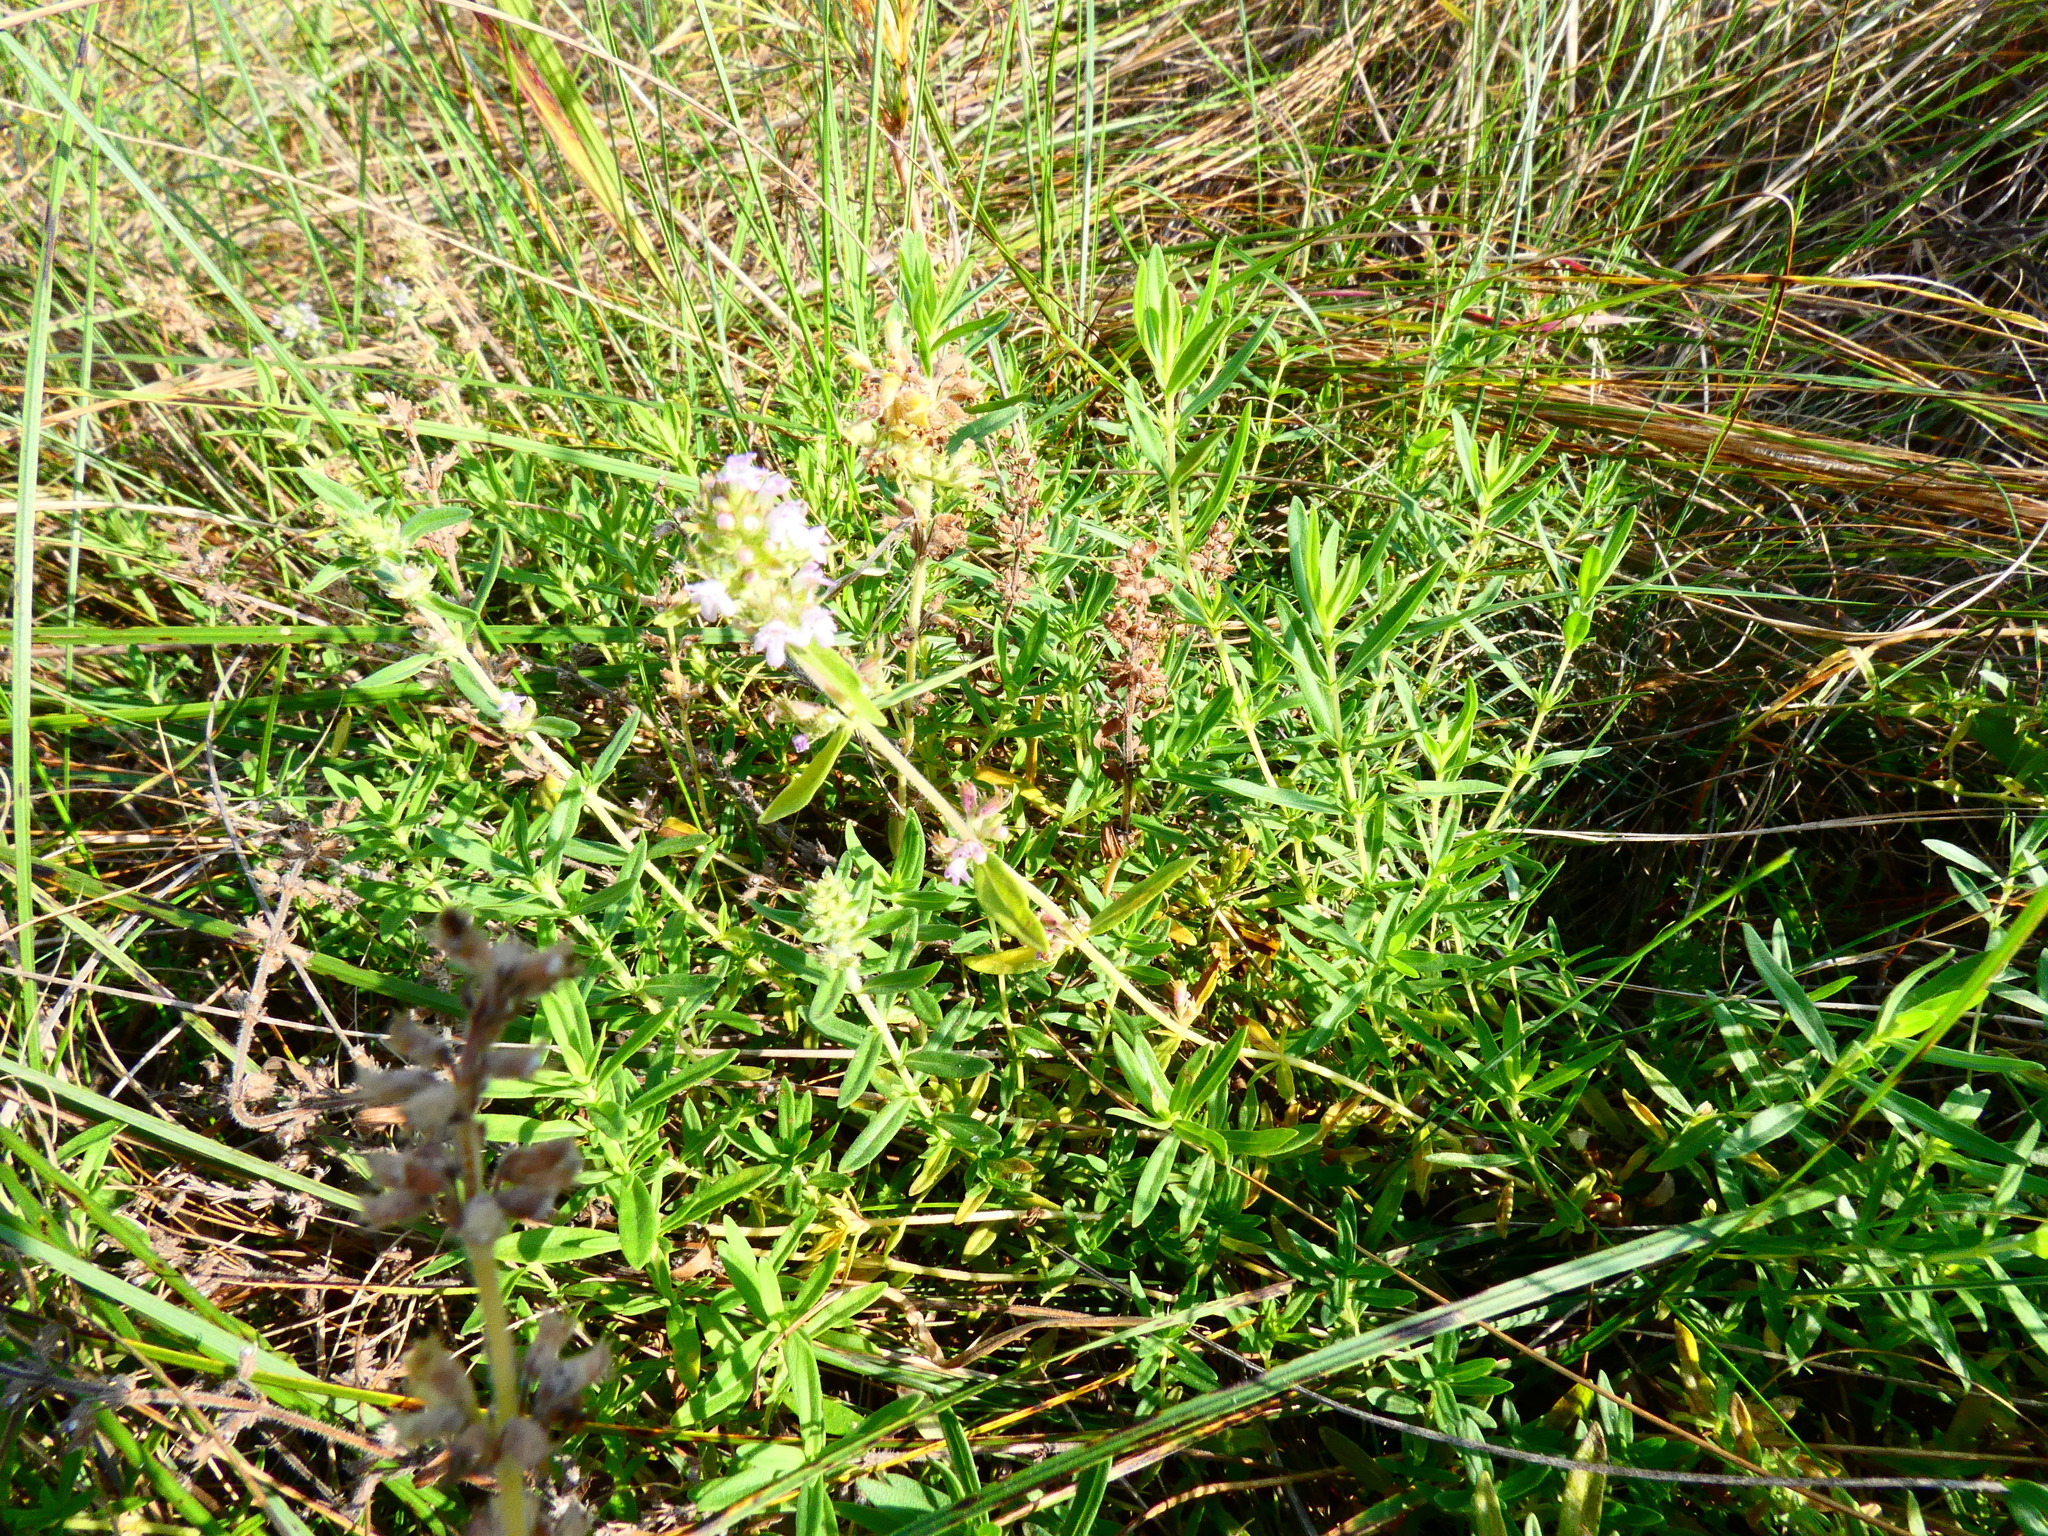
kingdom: Plantae
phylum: Tracheophyta
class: Magnoliopsida
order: Lamiales
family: Lamiaceae
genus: Thymus
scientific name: Thymus pannonicus
